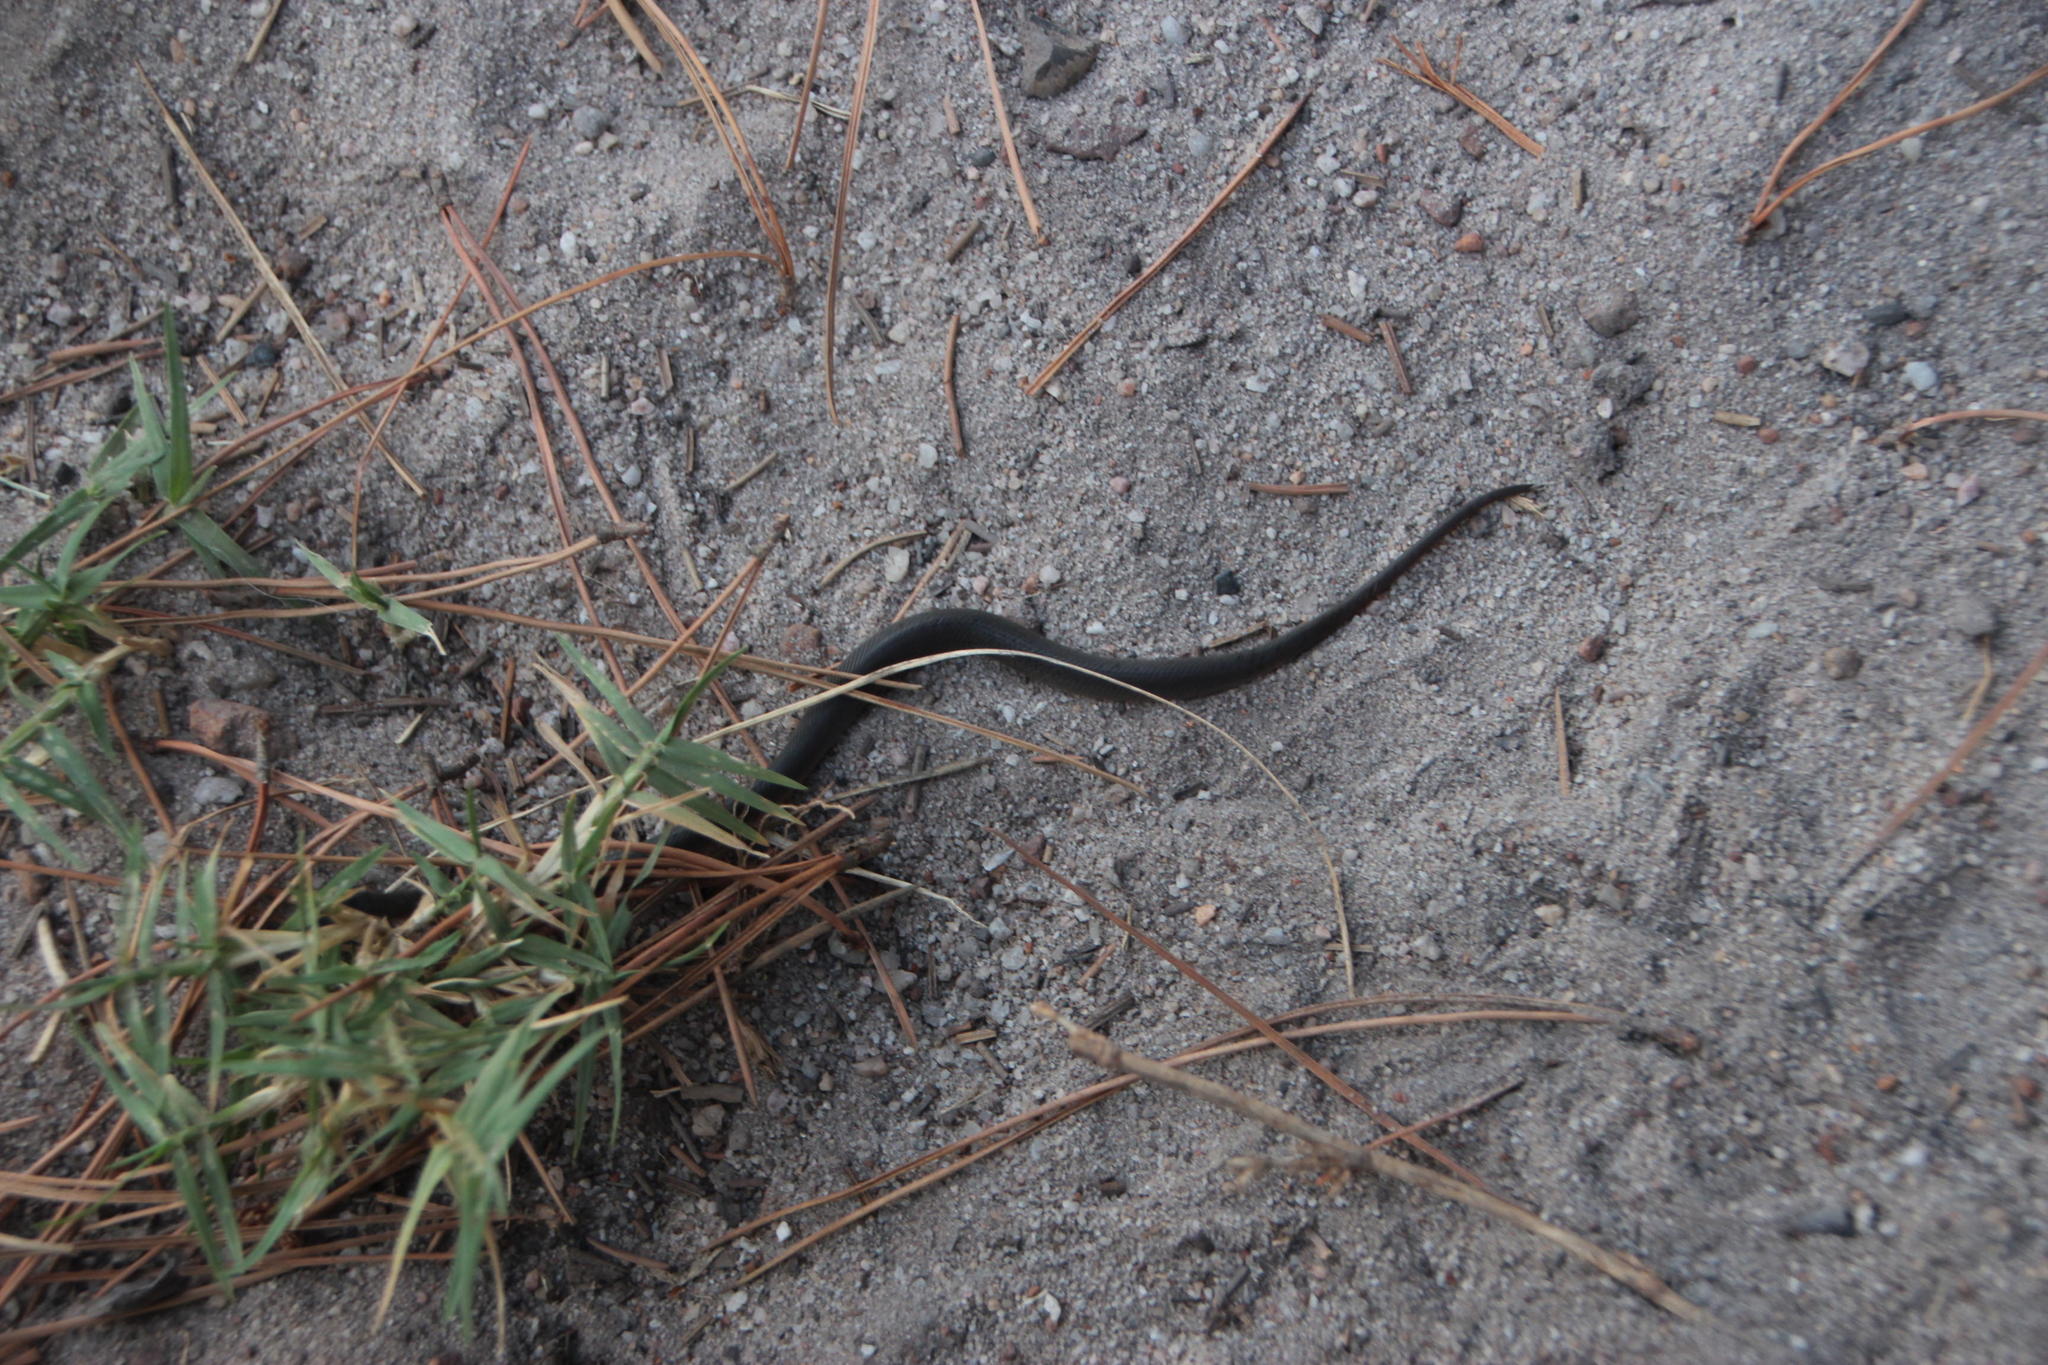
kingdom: Animalia
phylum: Chordata
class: Squamata
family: Lamprophiidae
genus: Lycodonomorphus
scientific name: Lycodonomorphus rufulus
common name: Brown water snake
